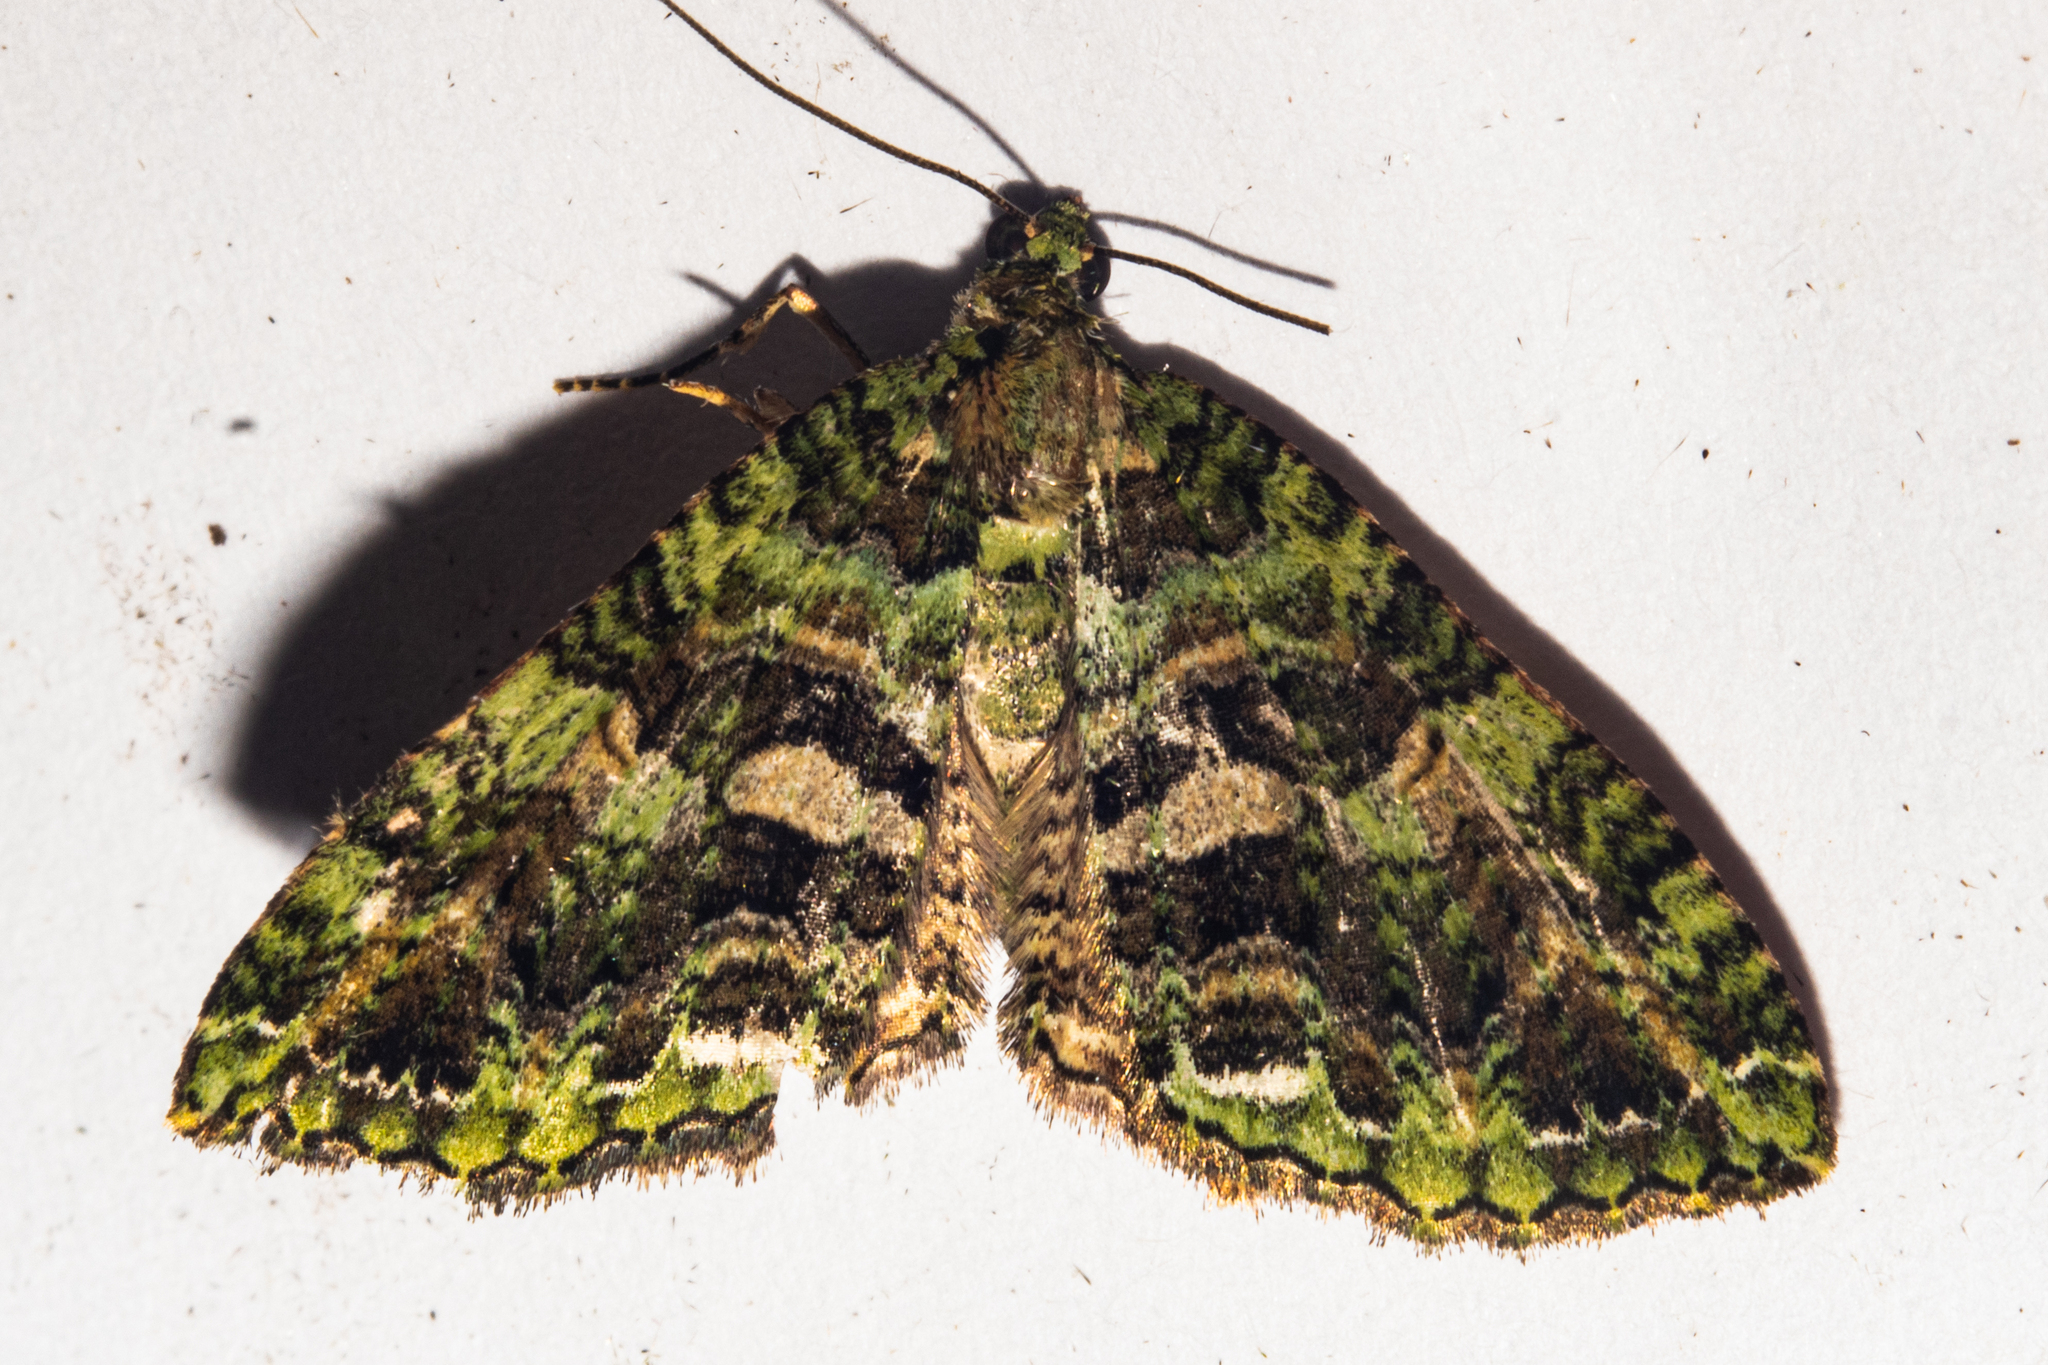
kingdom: Animalia
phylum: Arthropoda
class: Insecta
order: Lepidoptera
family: Geometridae
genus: Austrocidaria
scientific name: Austrocidaria similata
